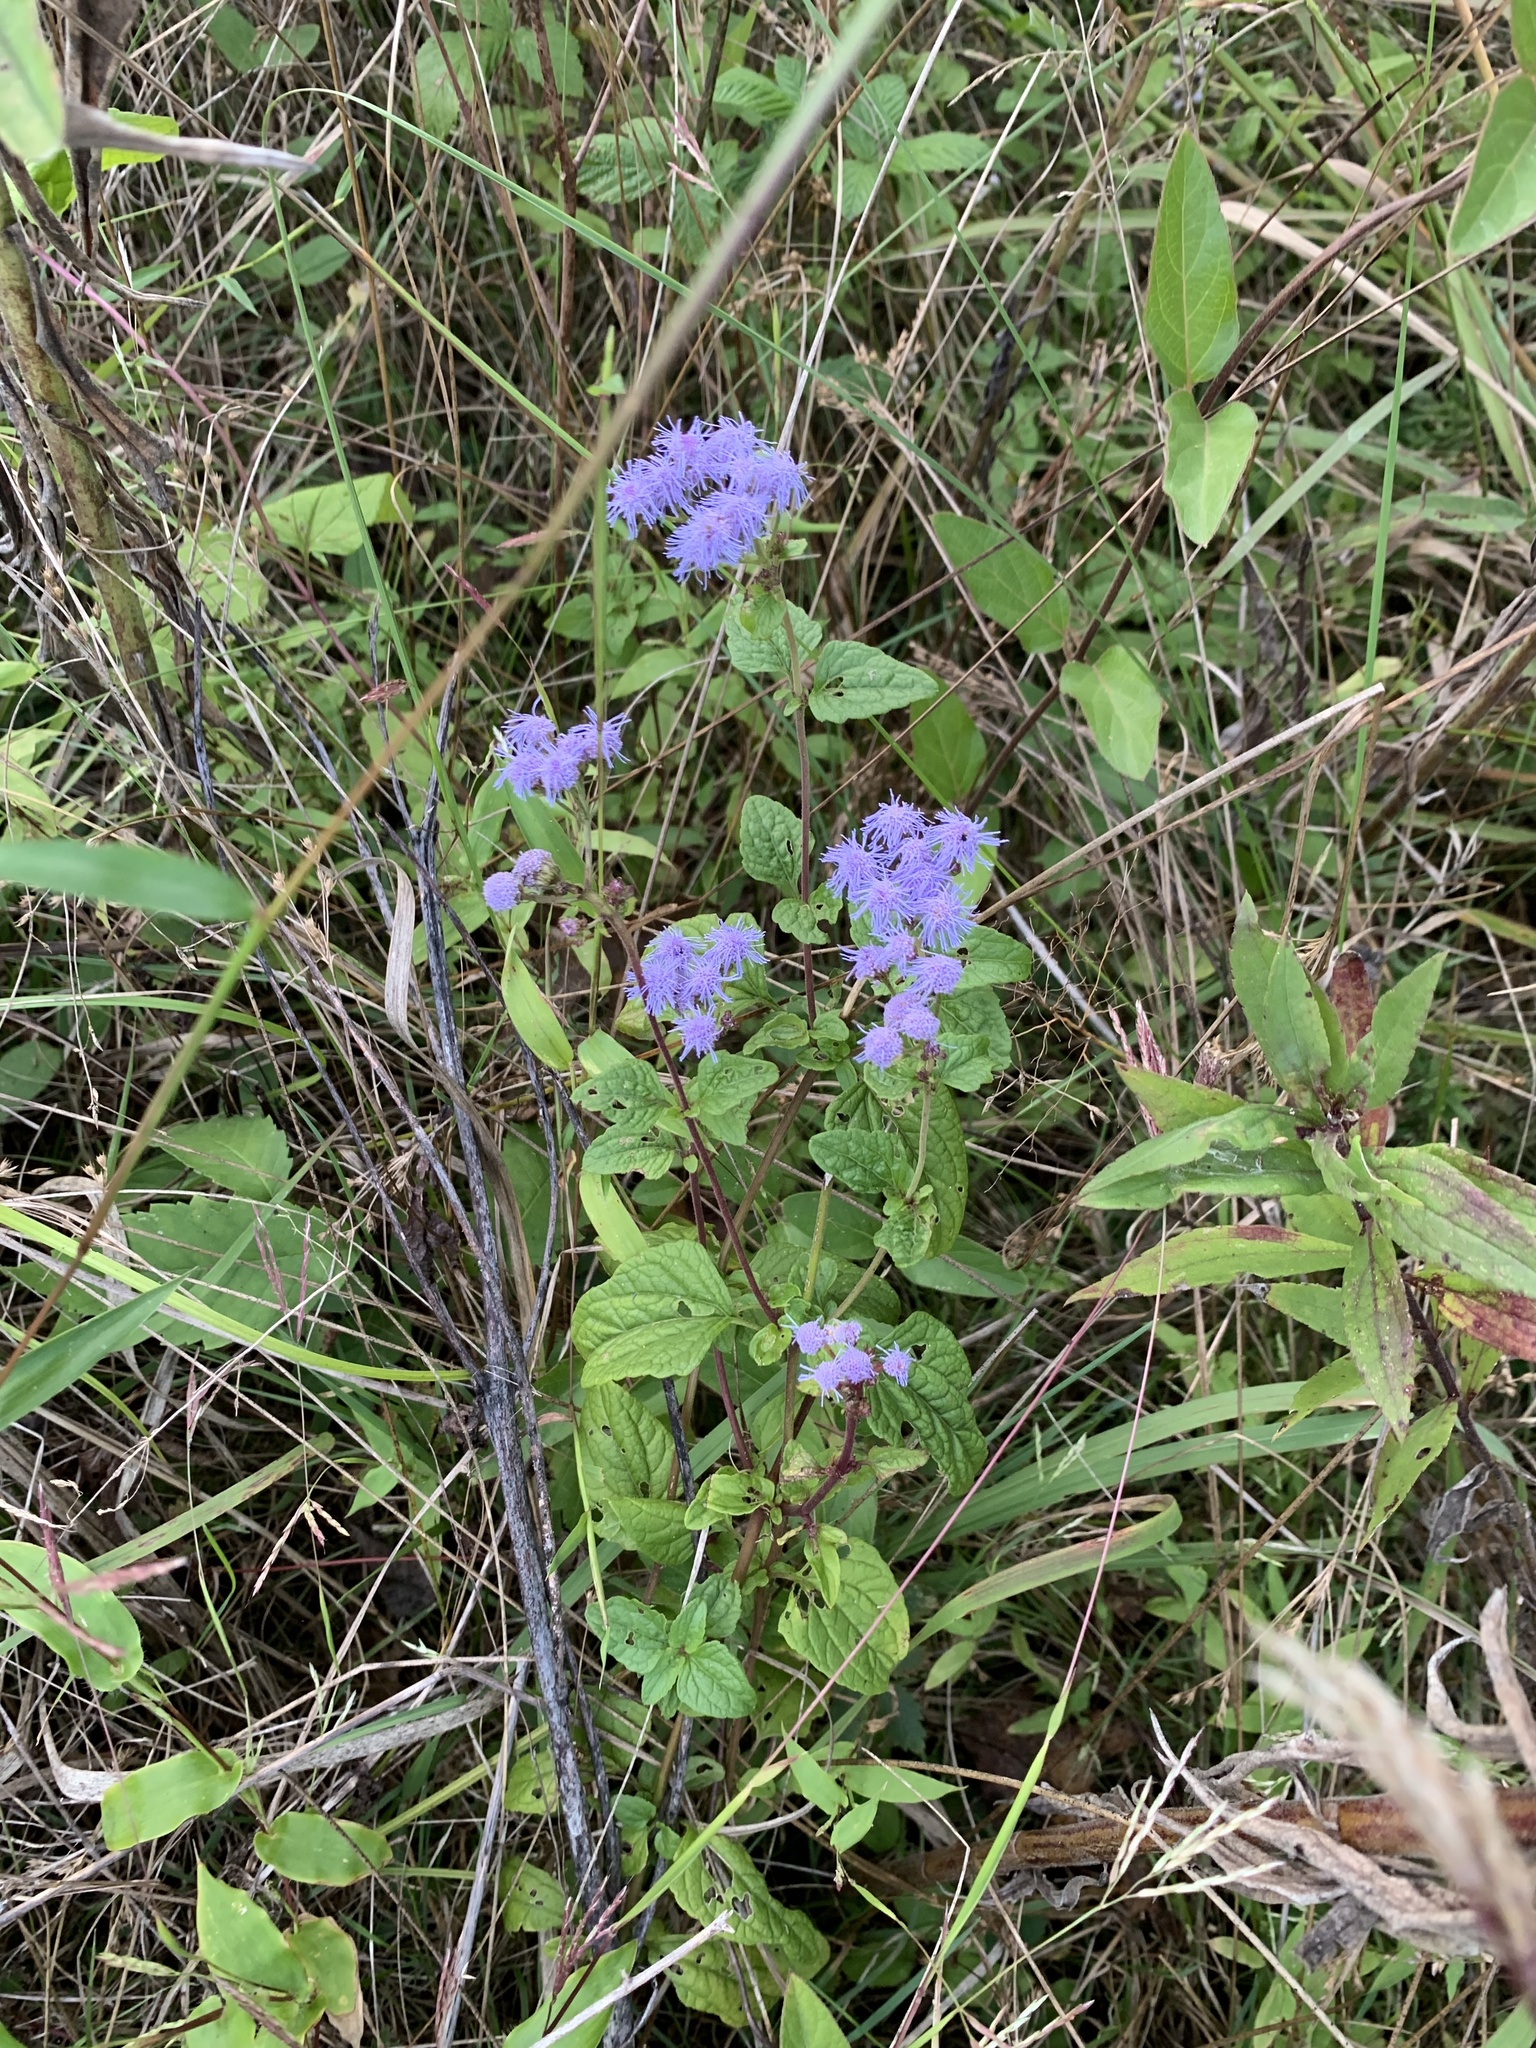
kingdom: Plantae
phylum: Tracheophyta
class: Magnoliopsida
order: Asterales
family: Asteraceae
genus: Conoclinium
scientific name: Conoclinium coelestinum
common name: Blue mistflower
